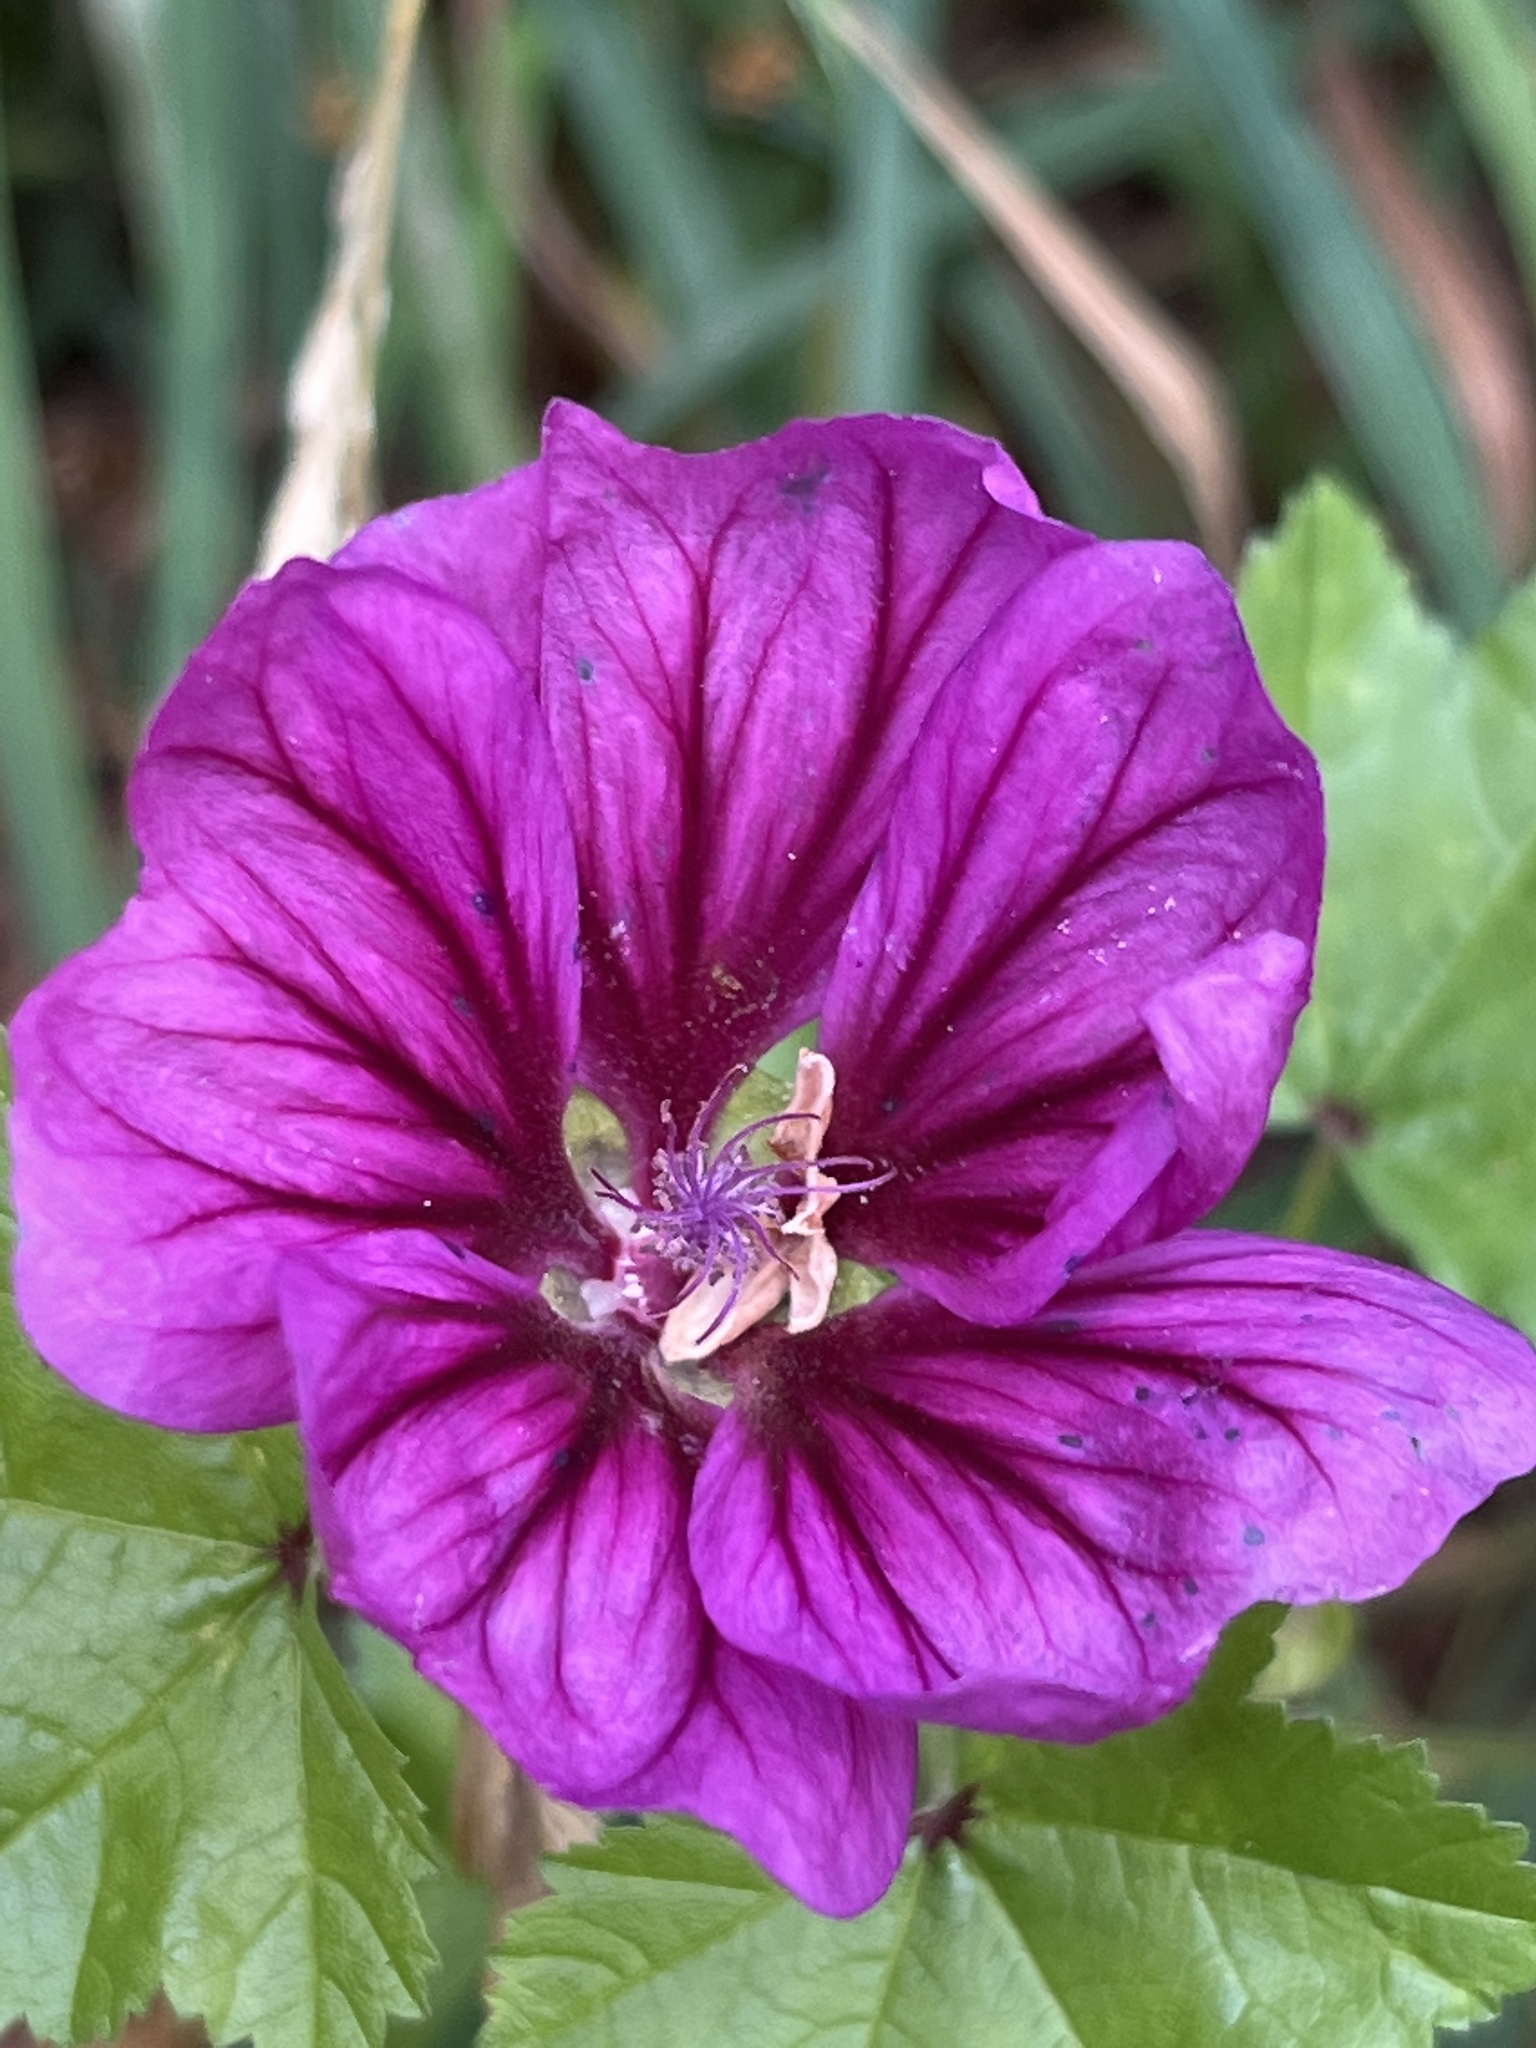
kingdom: Plantae
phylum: Tracheophyta
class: Magnoliopsida
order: Malvales
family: Malvaceae
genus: Malva
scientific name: Malva sylvestris
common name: Common mallow
